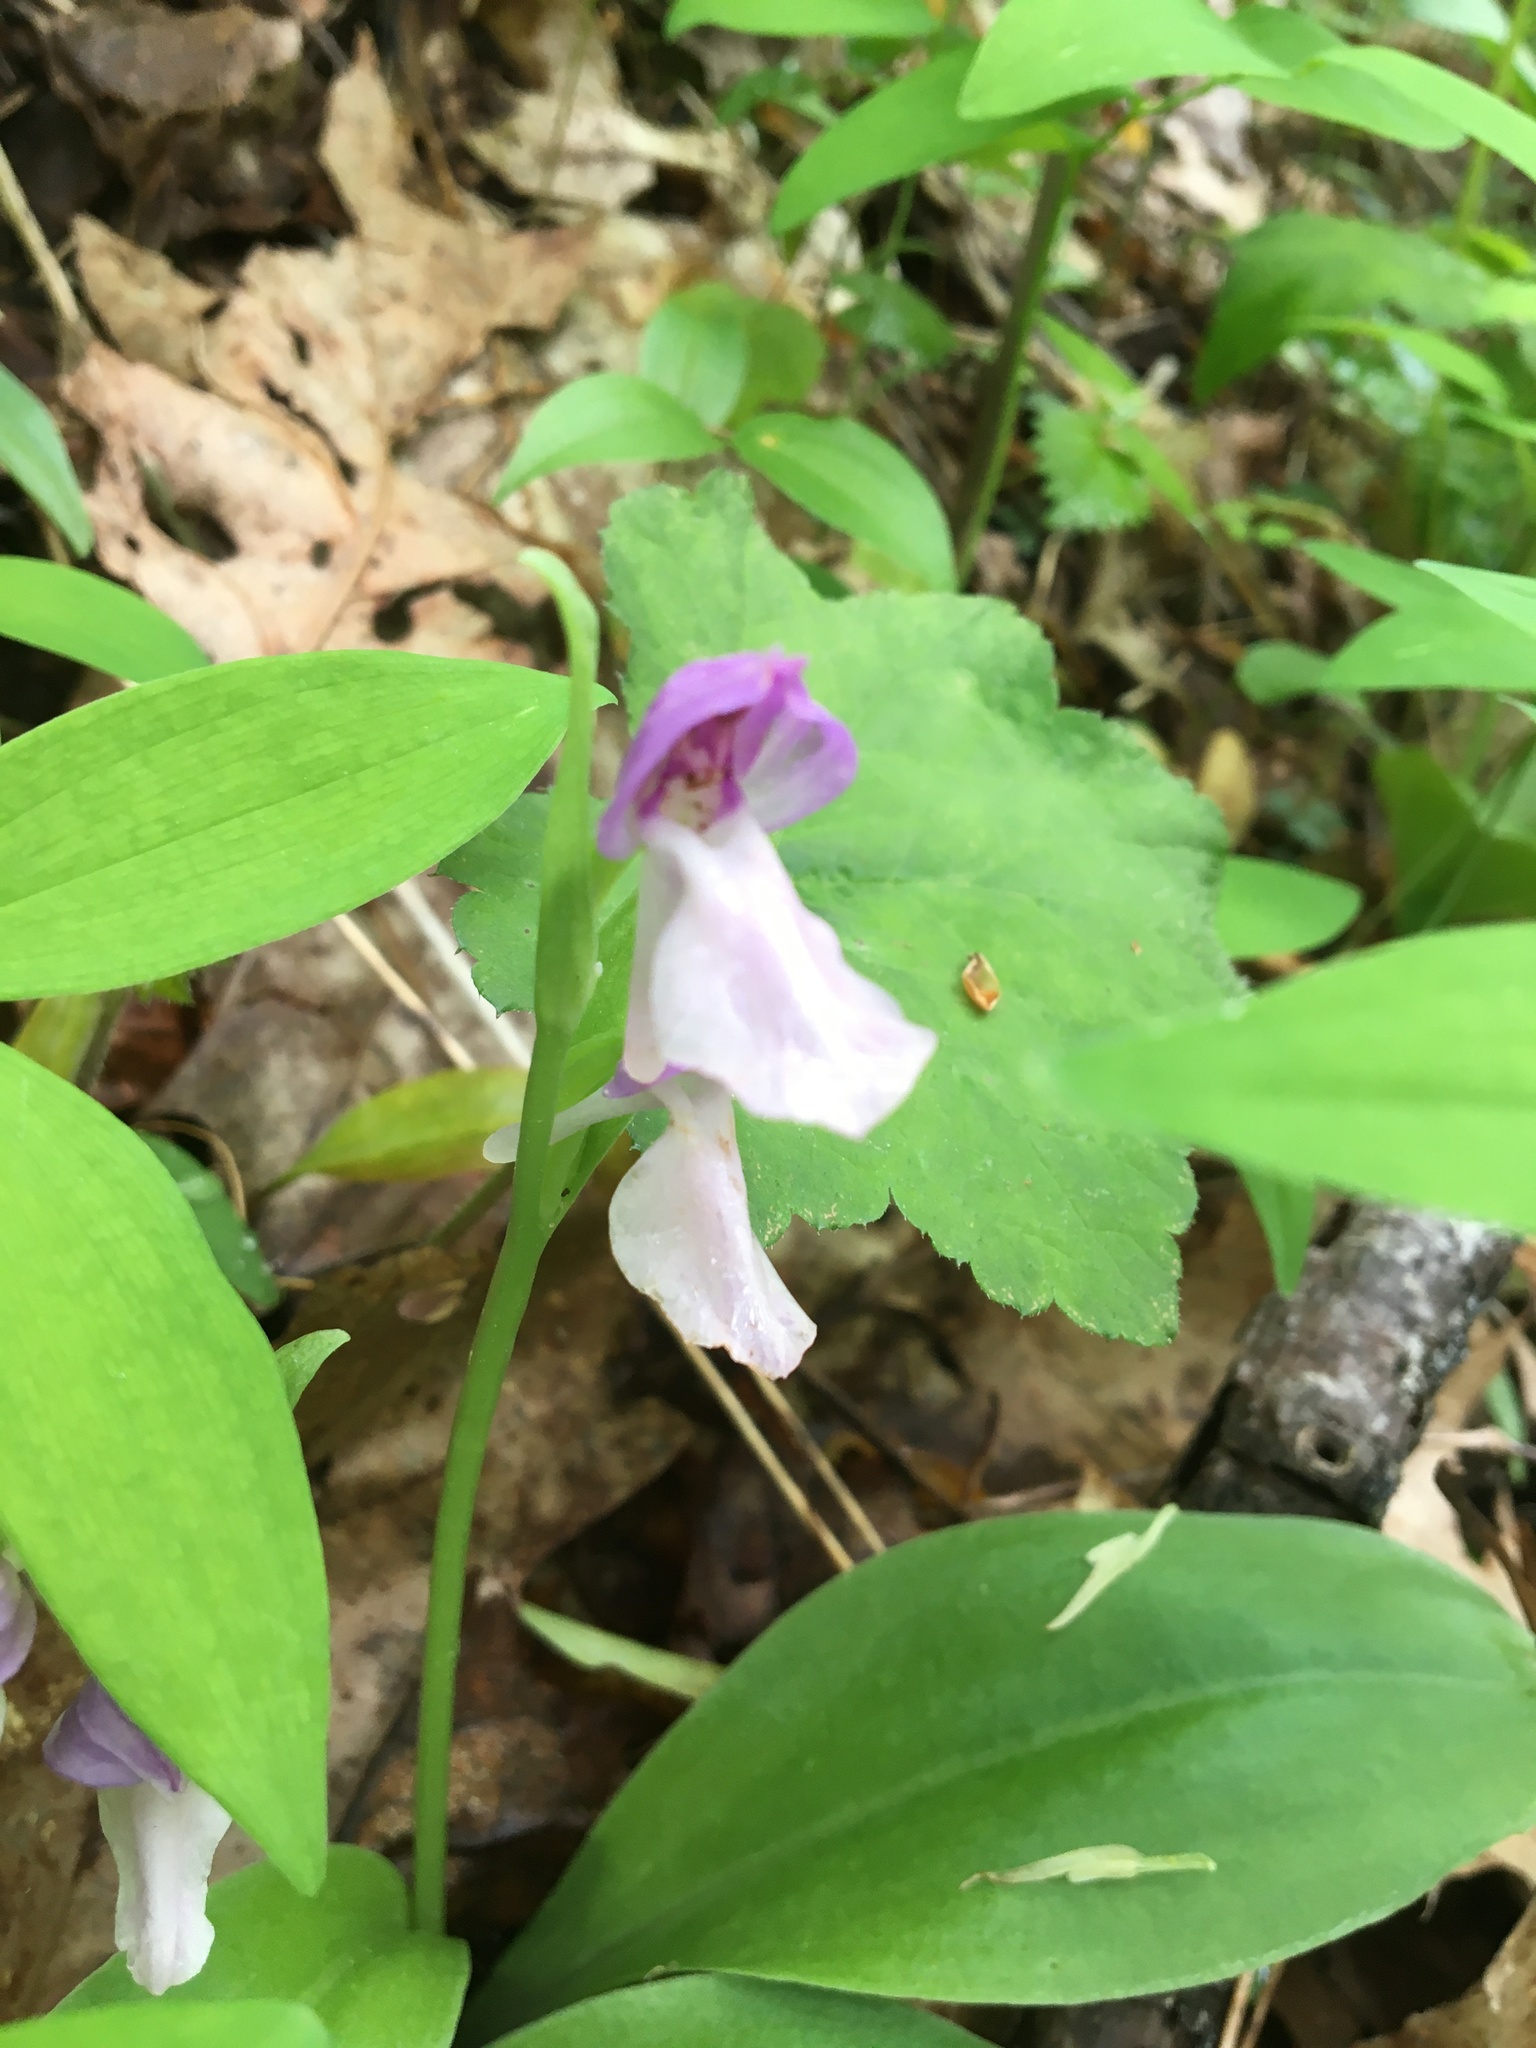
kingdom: Plantae
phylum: Tracheophyta
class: Liliopsida
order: Asparagales
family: Orchidaceae
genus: Galearis
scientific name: Galearis spectabilis
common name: Purple-hooded orchis
